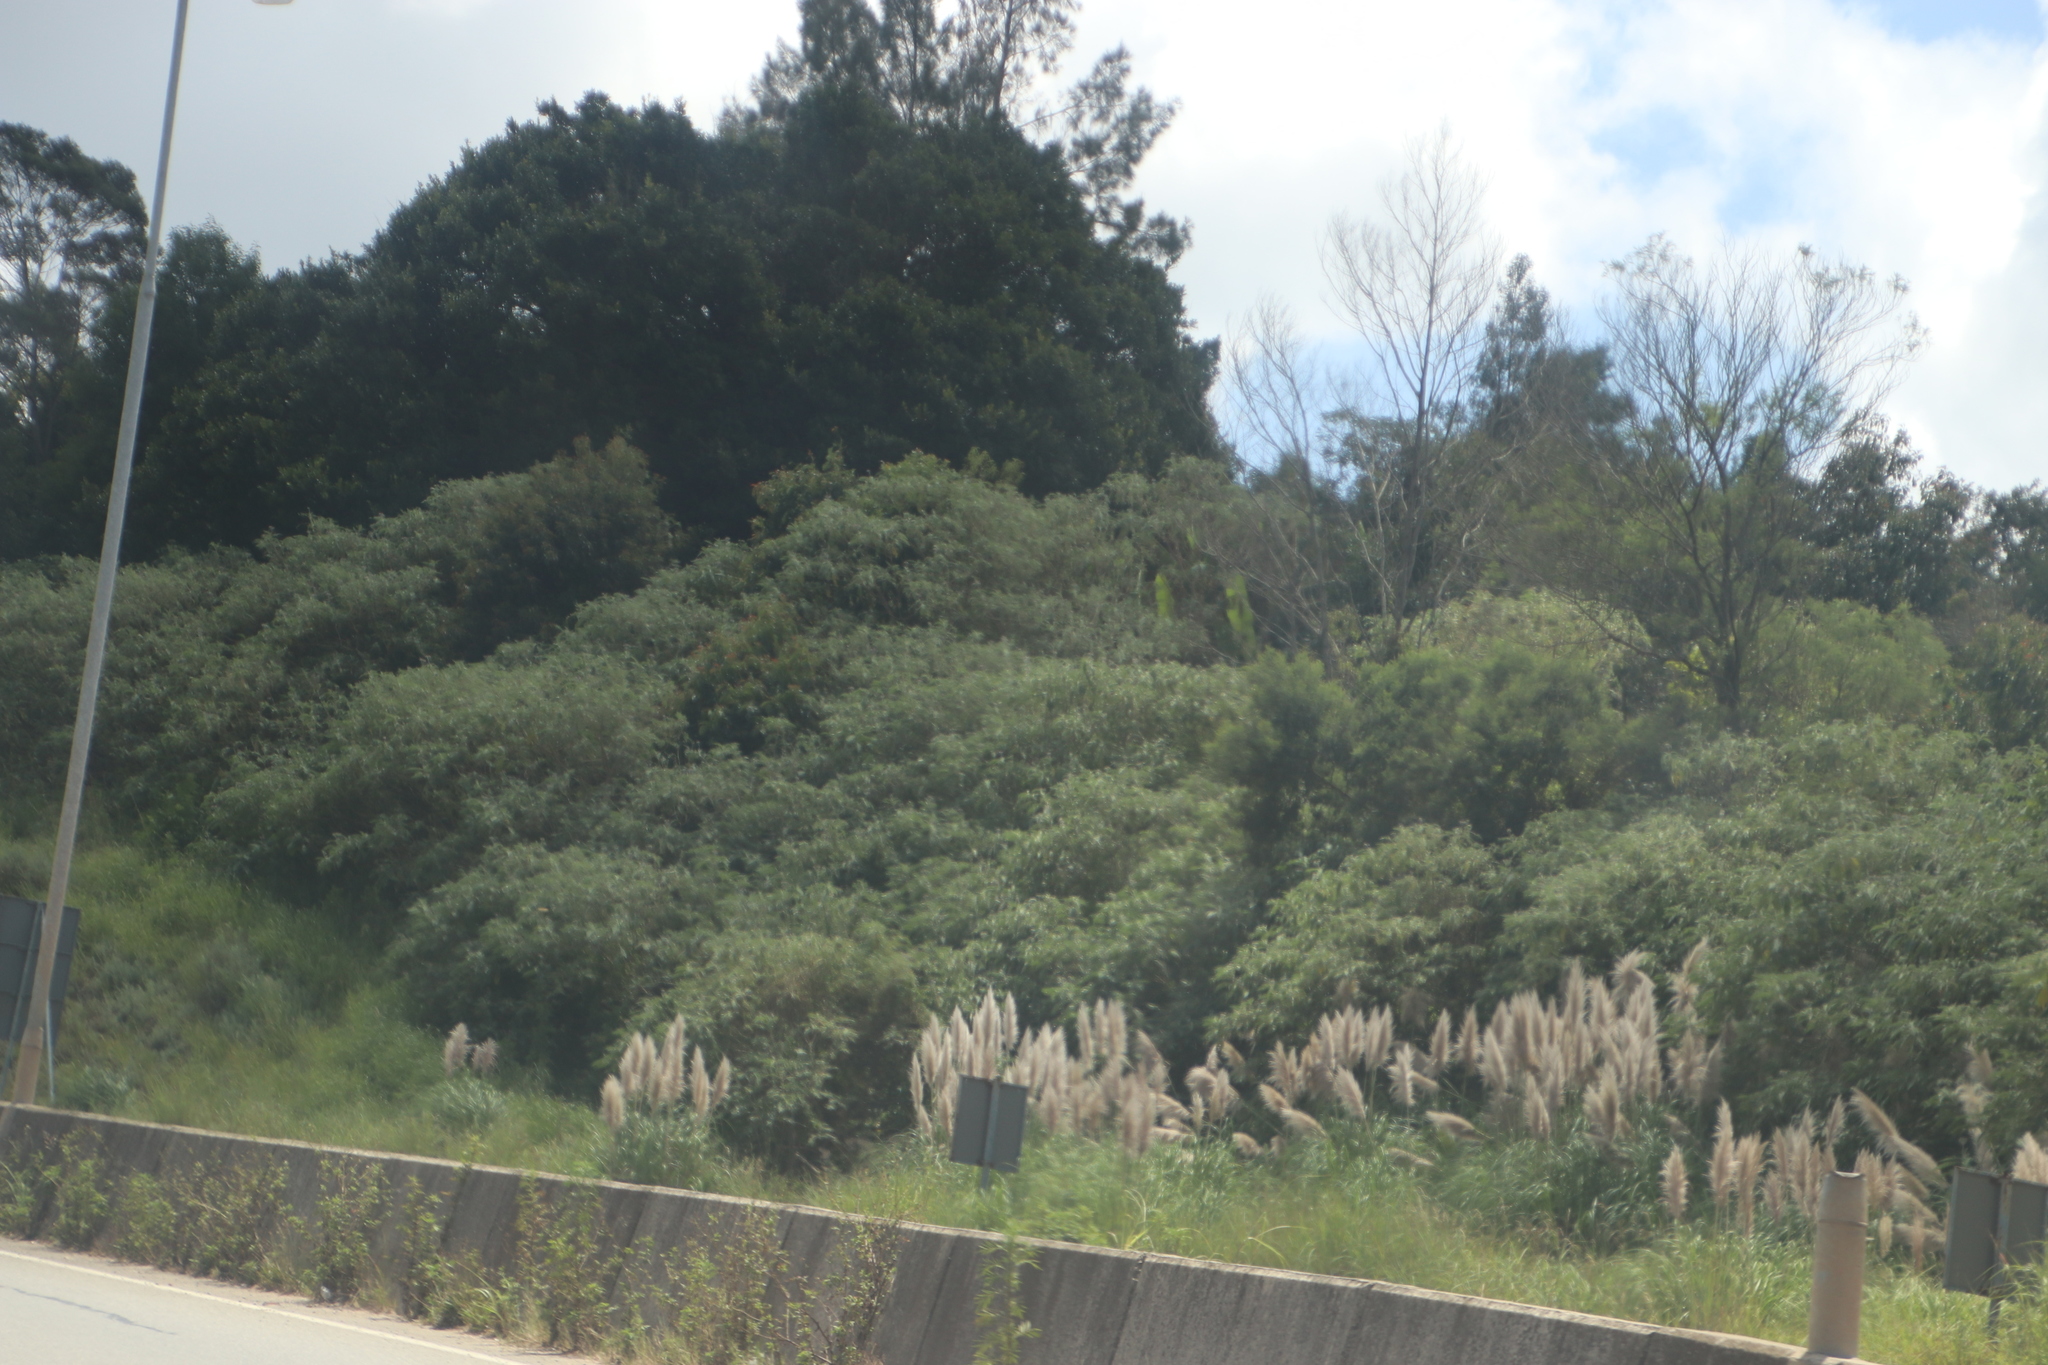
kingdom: Plantae
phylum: Tracheophyta
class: Liliopsida
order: Poales
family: Poaceae
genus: Cortaderia
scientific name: Cortaderia selloana
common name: Uruguayan pampas grass
